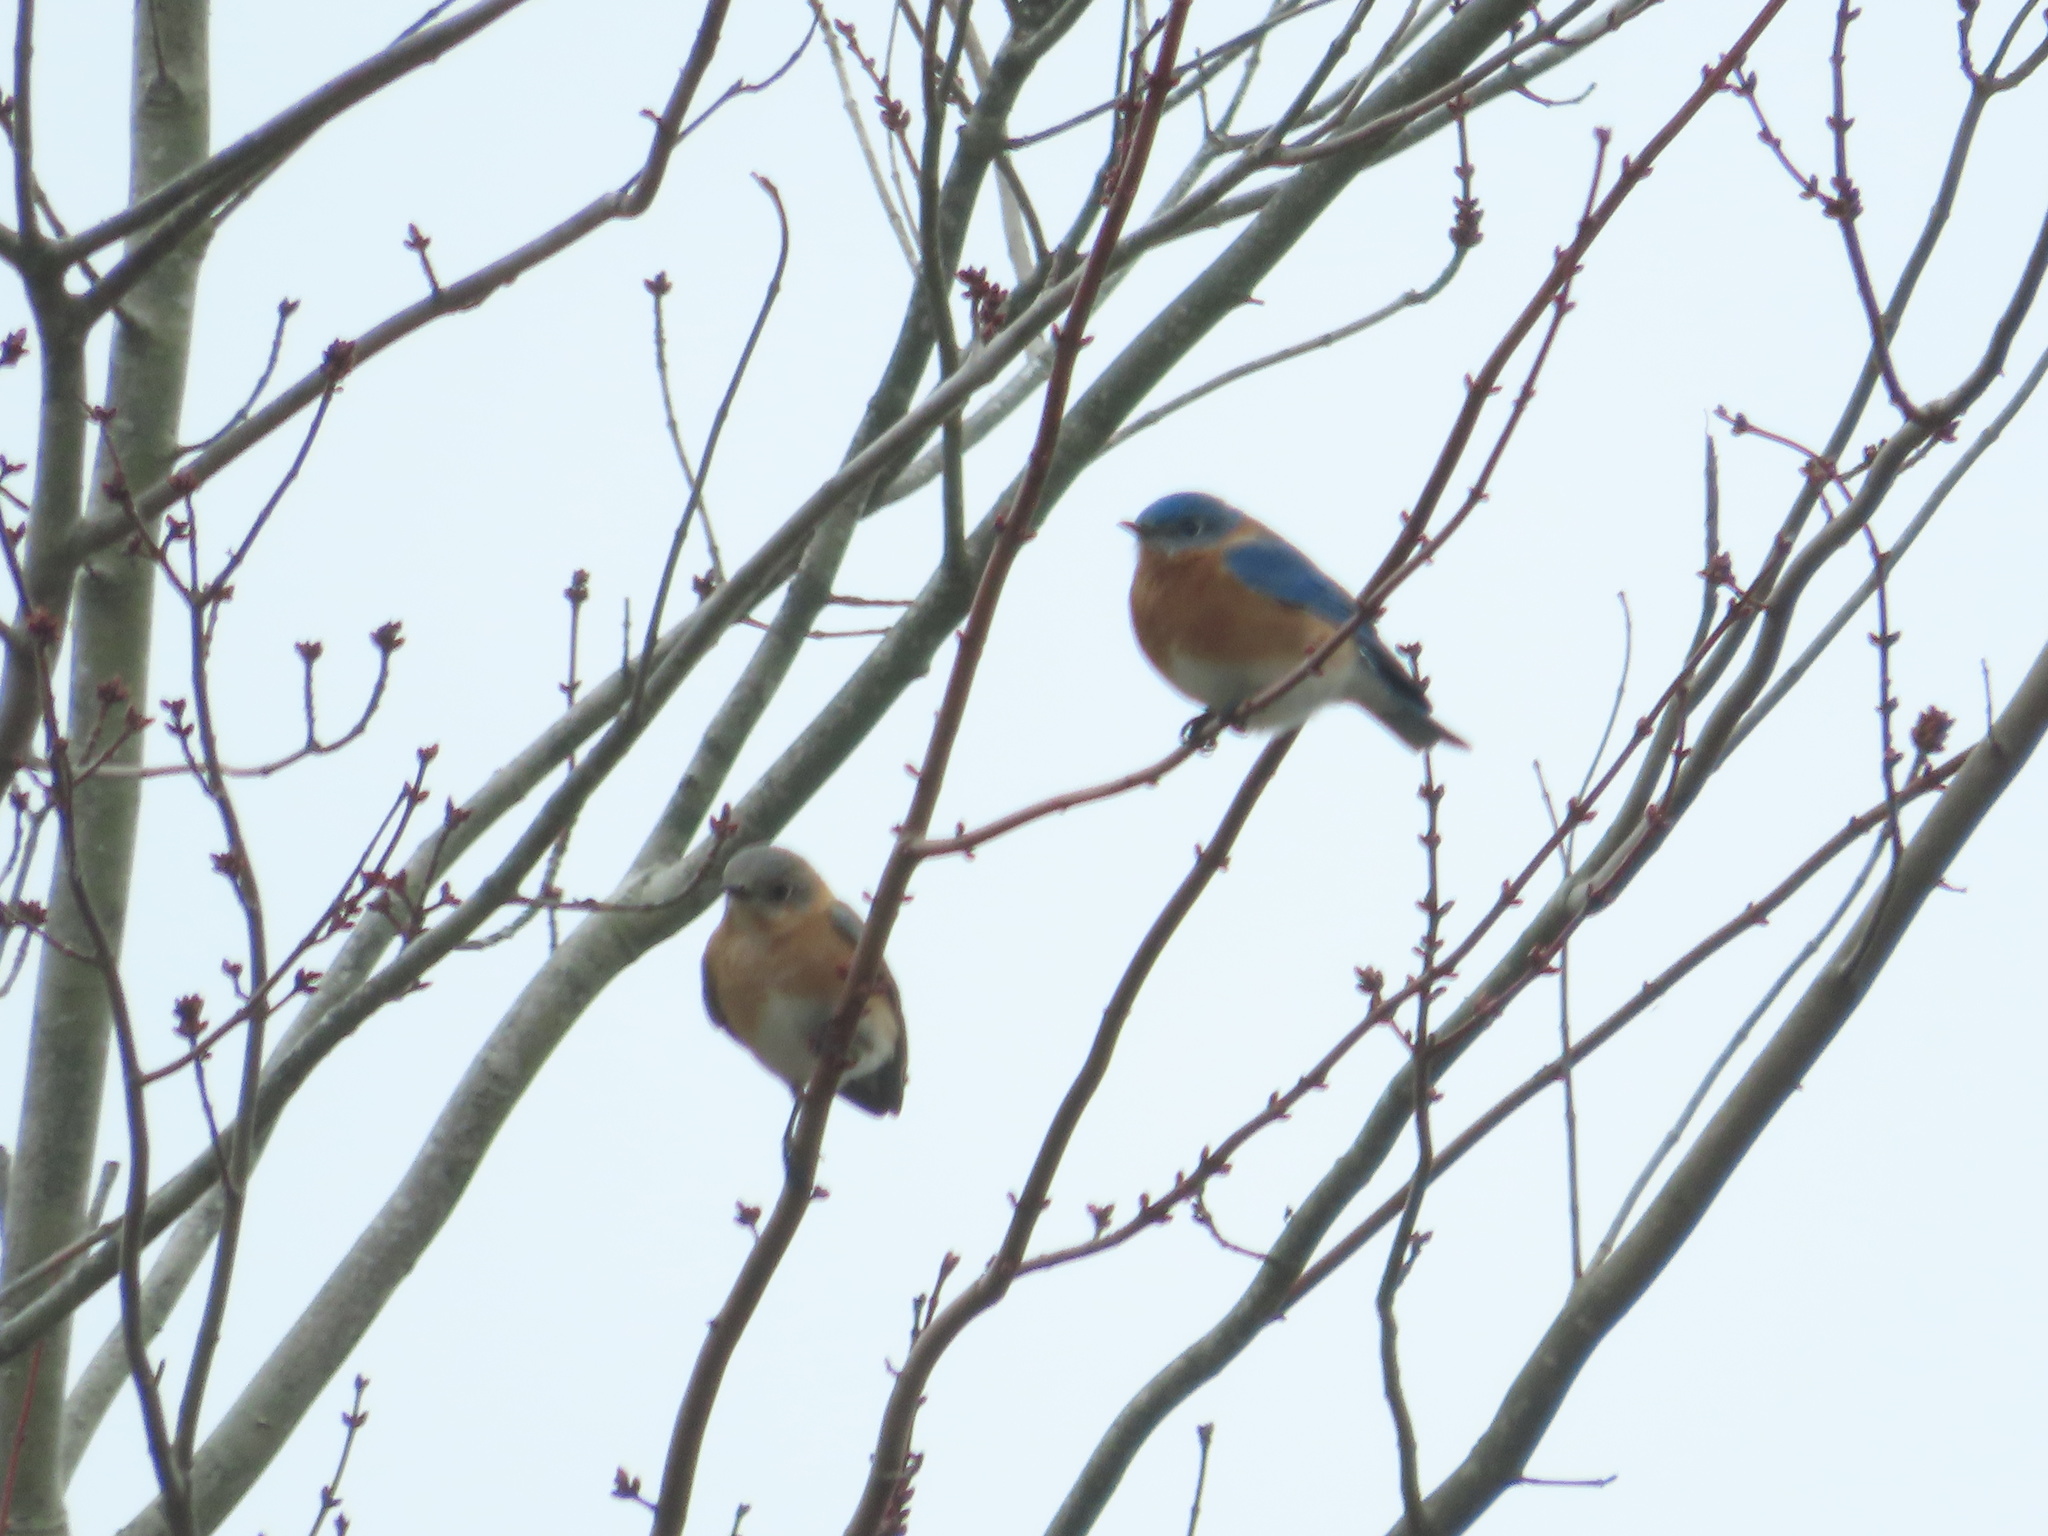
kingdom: Animalia
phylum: Chordata
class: Aves
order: Passeriformes
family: Turdidae
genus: Sialia
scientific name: Sialia sialis
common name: Eastern bluebird
